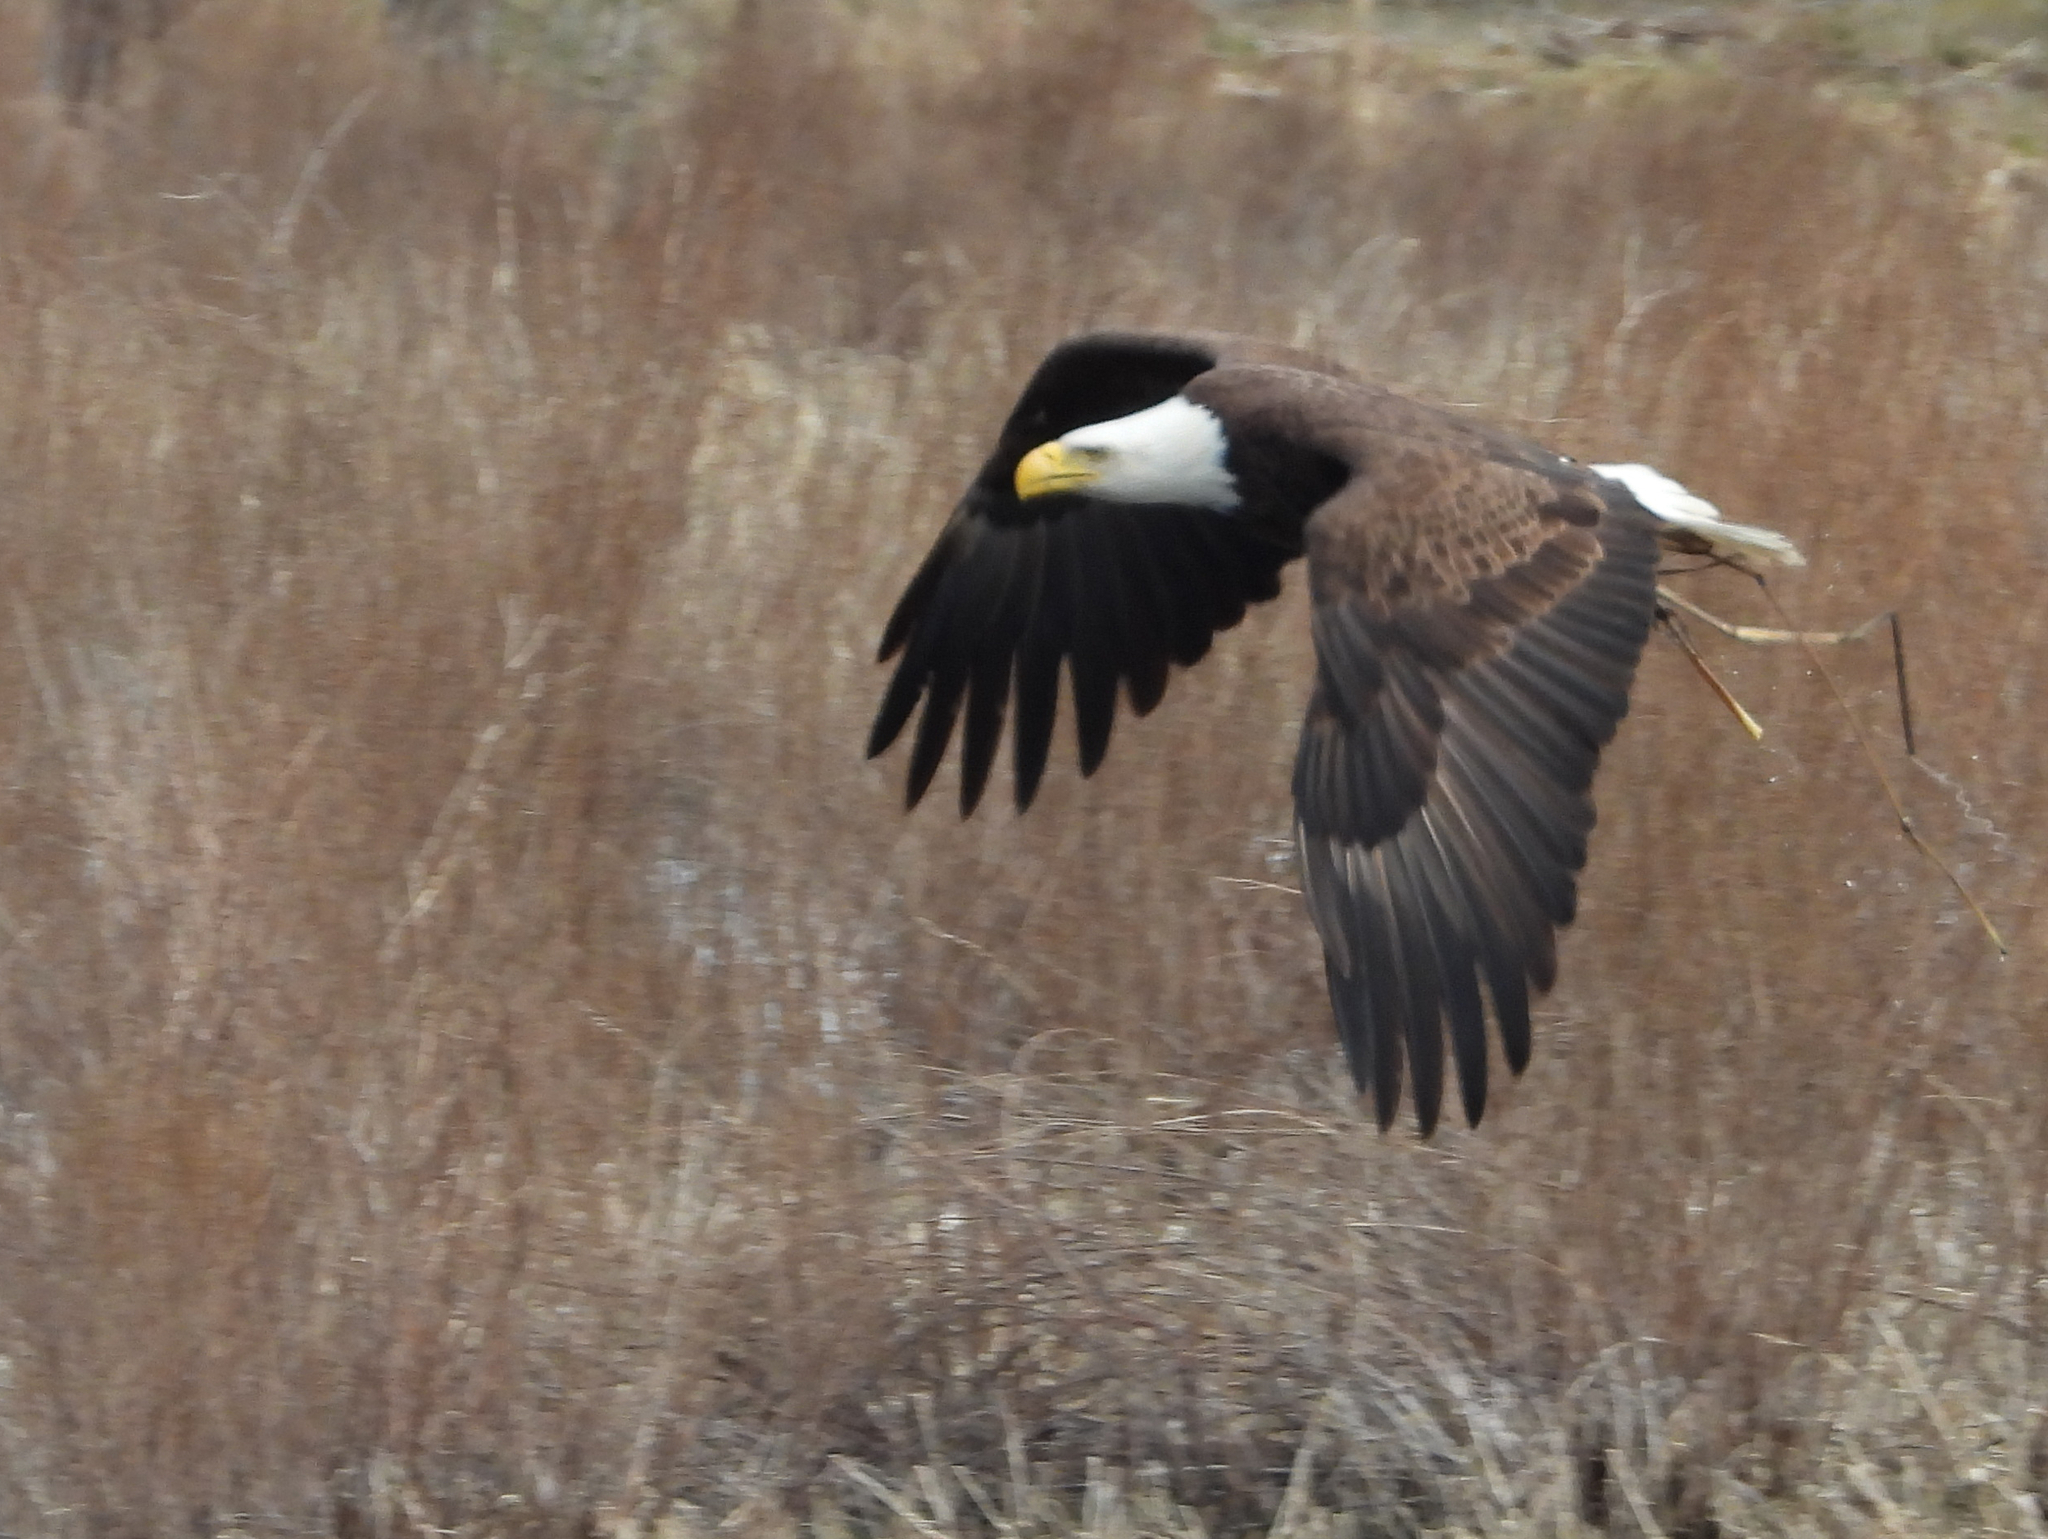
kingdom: Animalia
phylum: Chordata
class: Aves
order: Accipitriformes
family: Accipitridae
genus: Haliaeetus
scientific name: Haliaeetus leucocephalus
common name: Bald eagle
